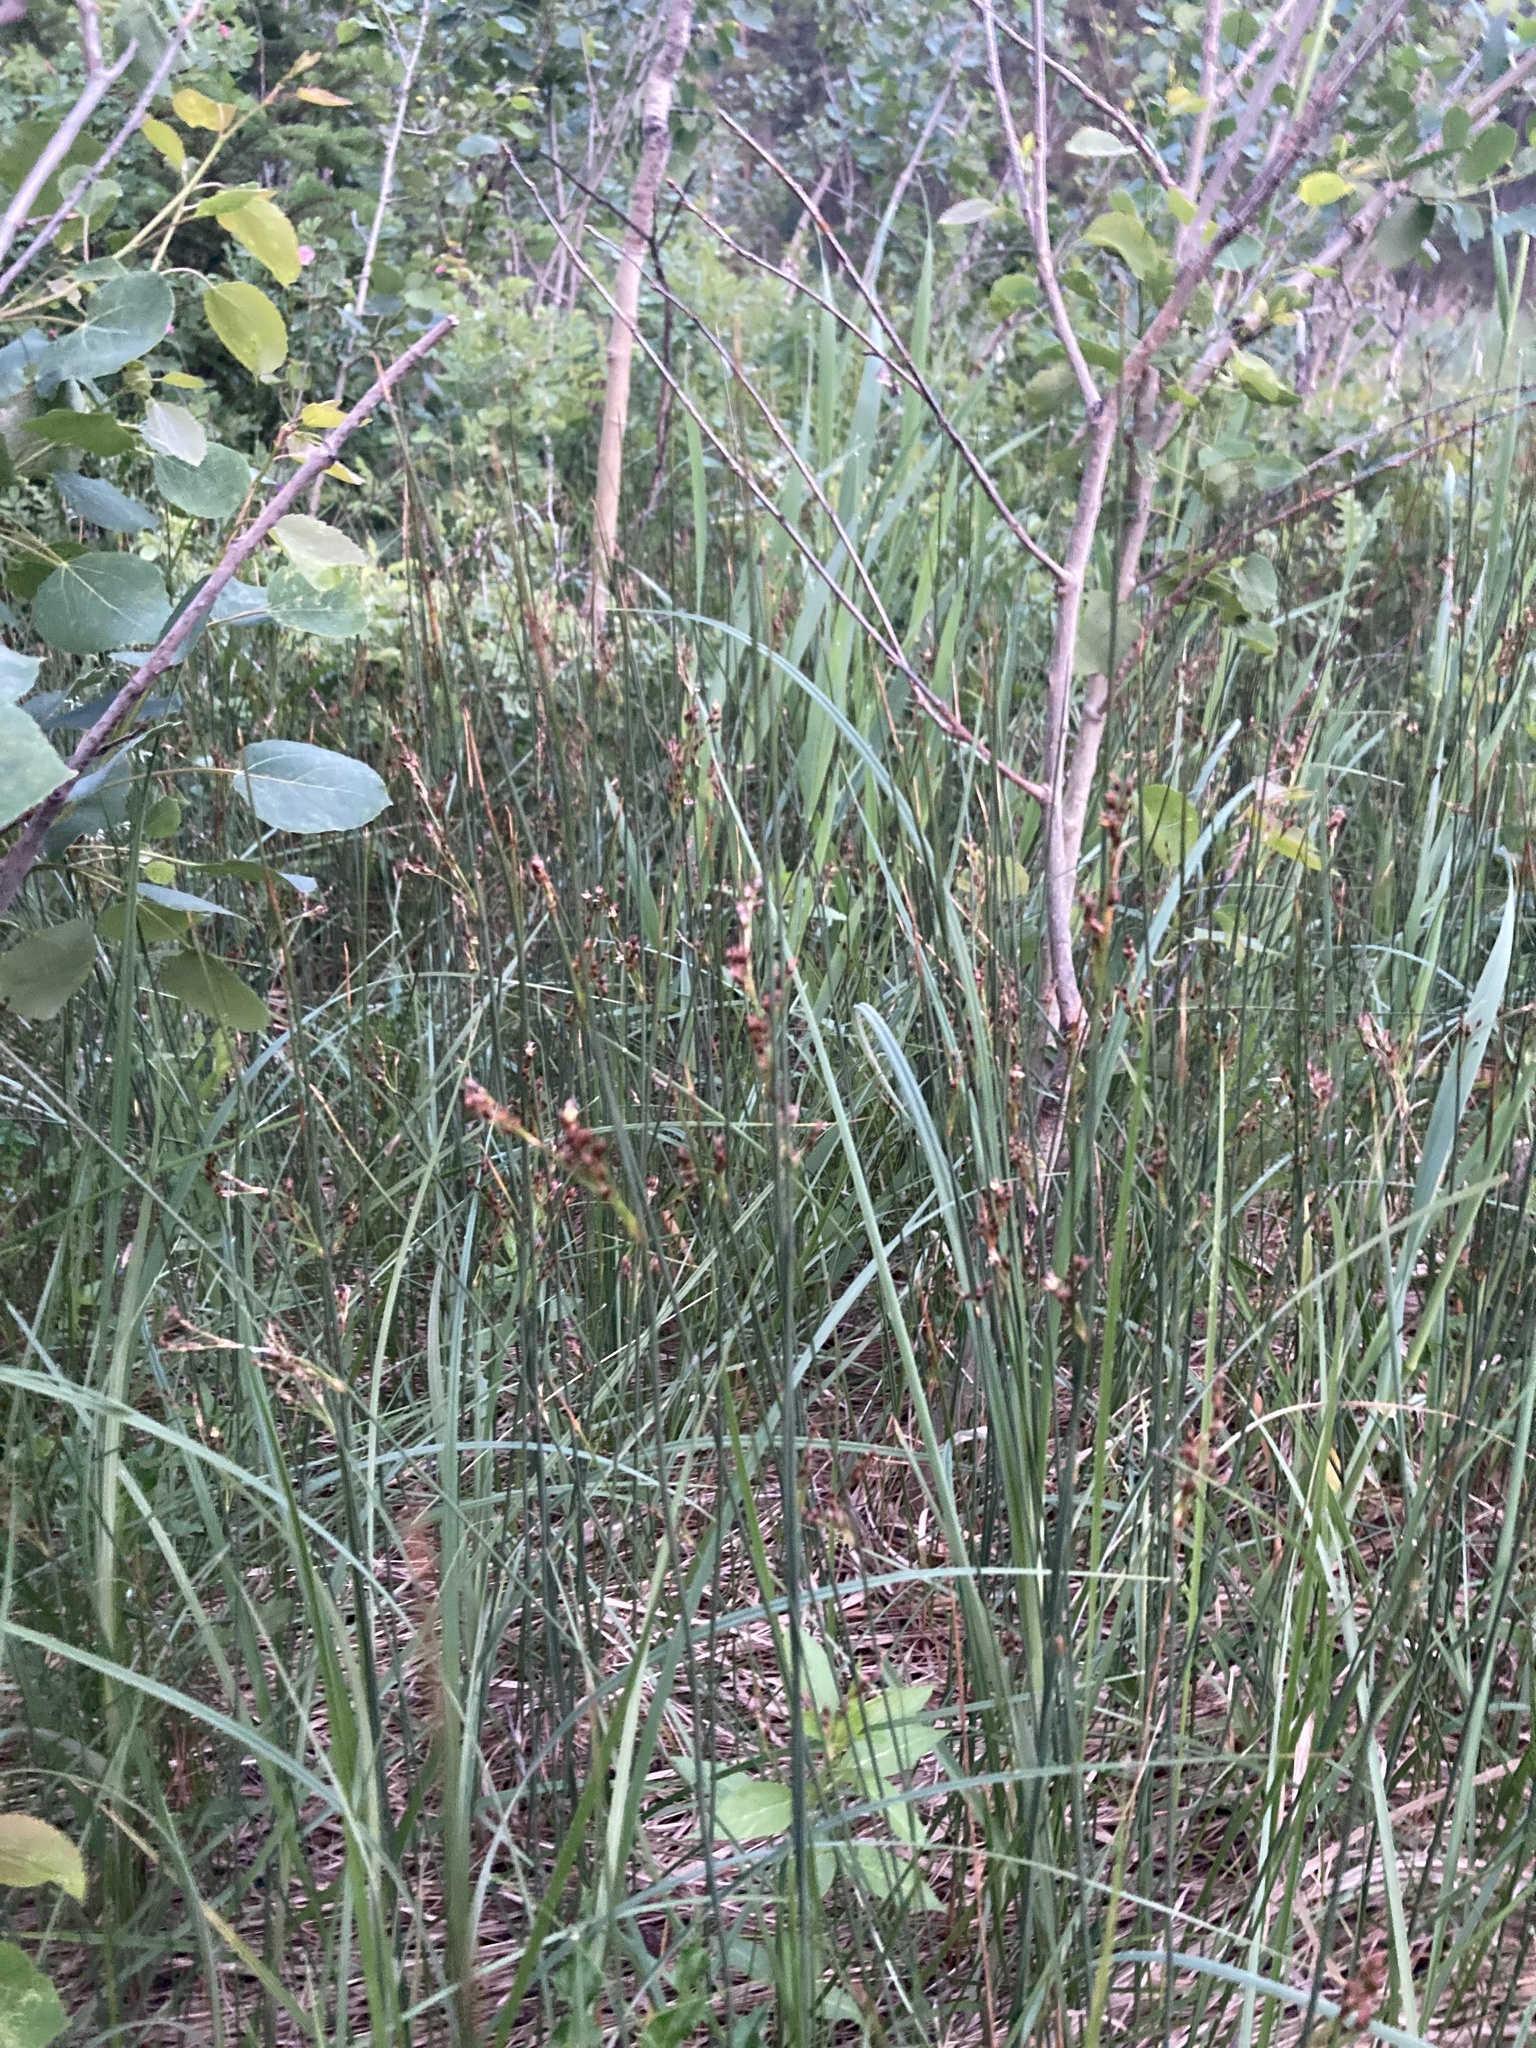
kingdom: Plantae
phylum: Tracheophyta
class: Liliopsida
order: Poales
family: Juncaceae
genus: Juncus
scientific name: Juncus balticus
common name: Baltic rush
